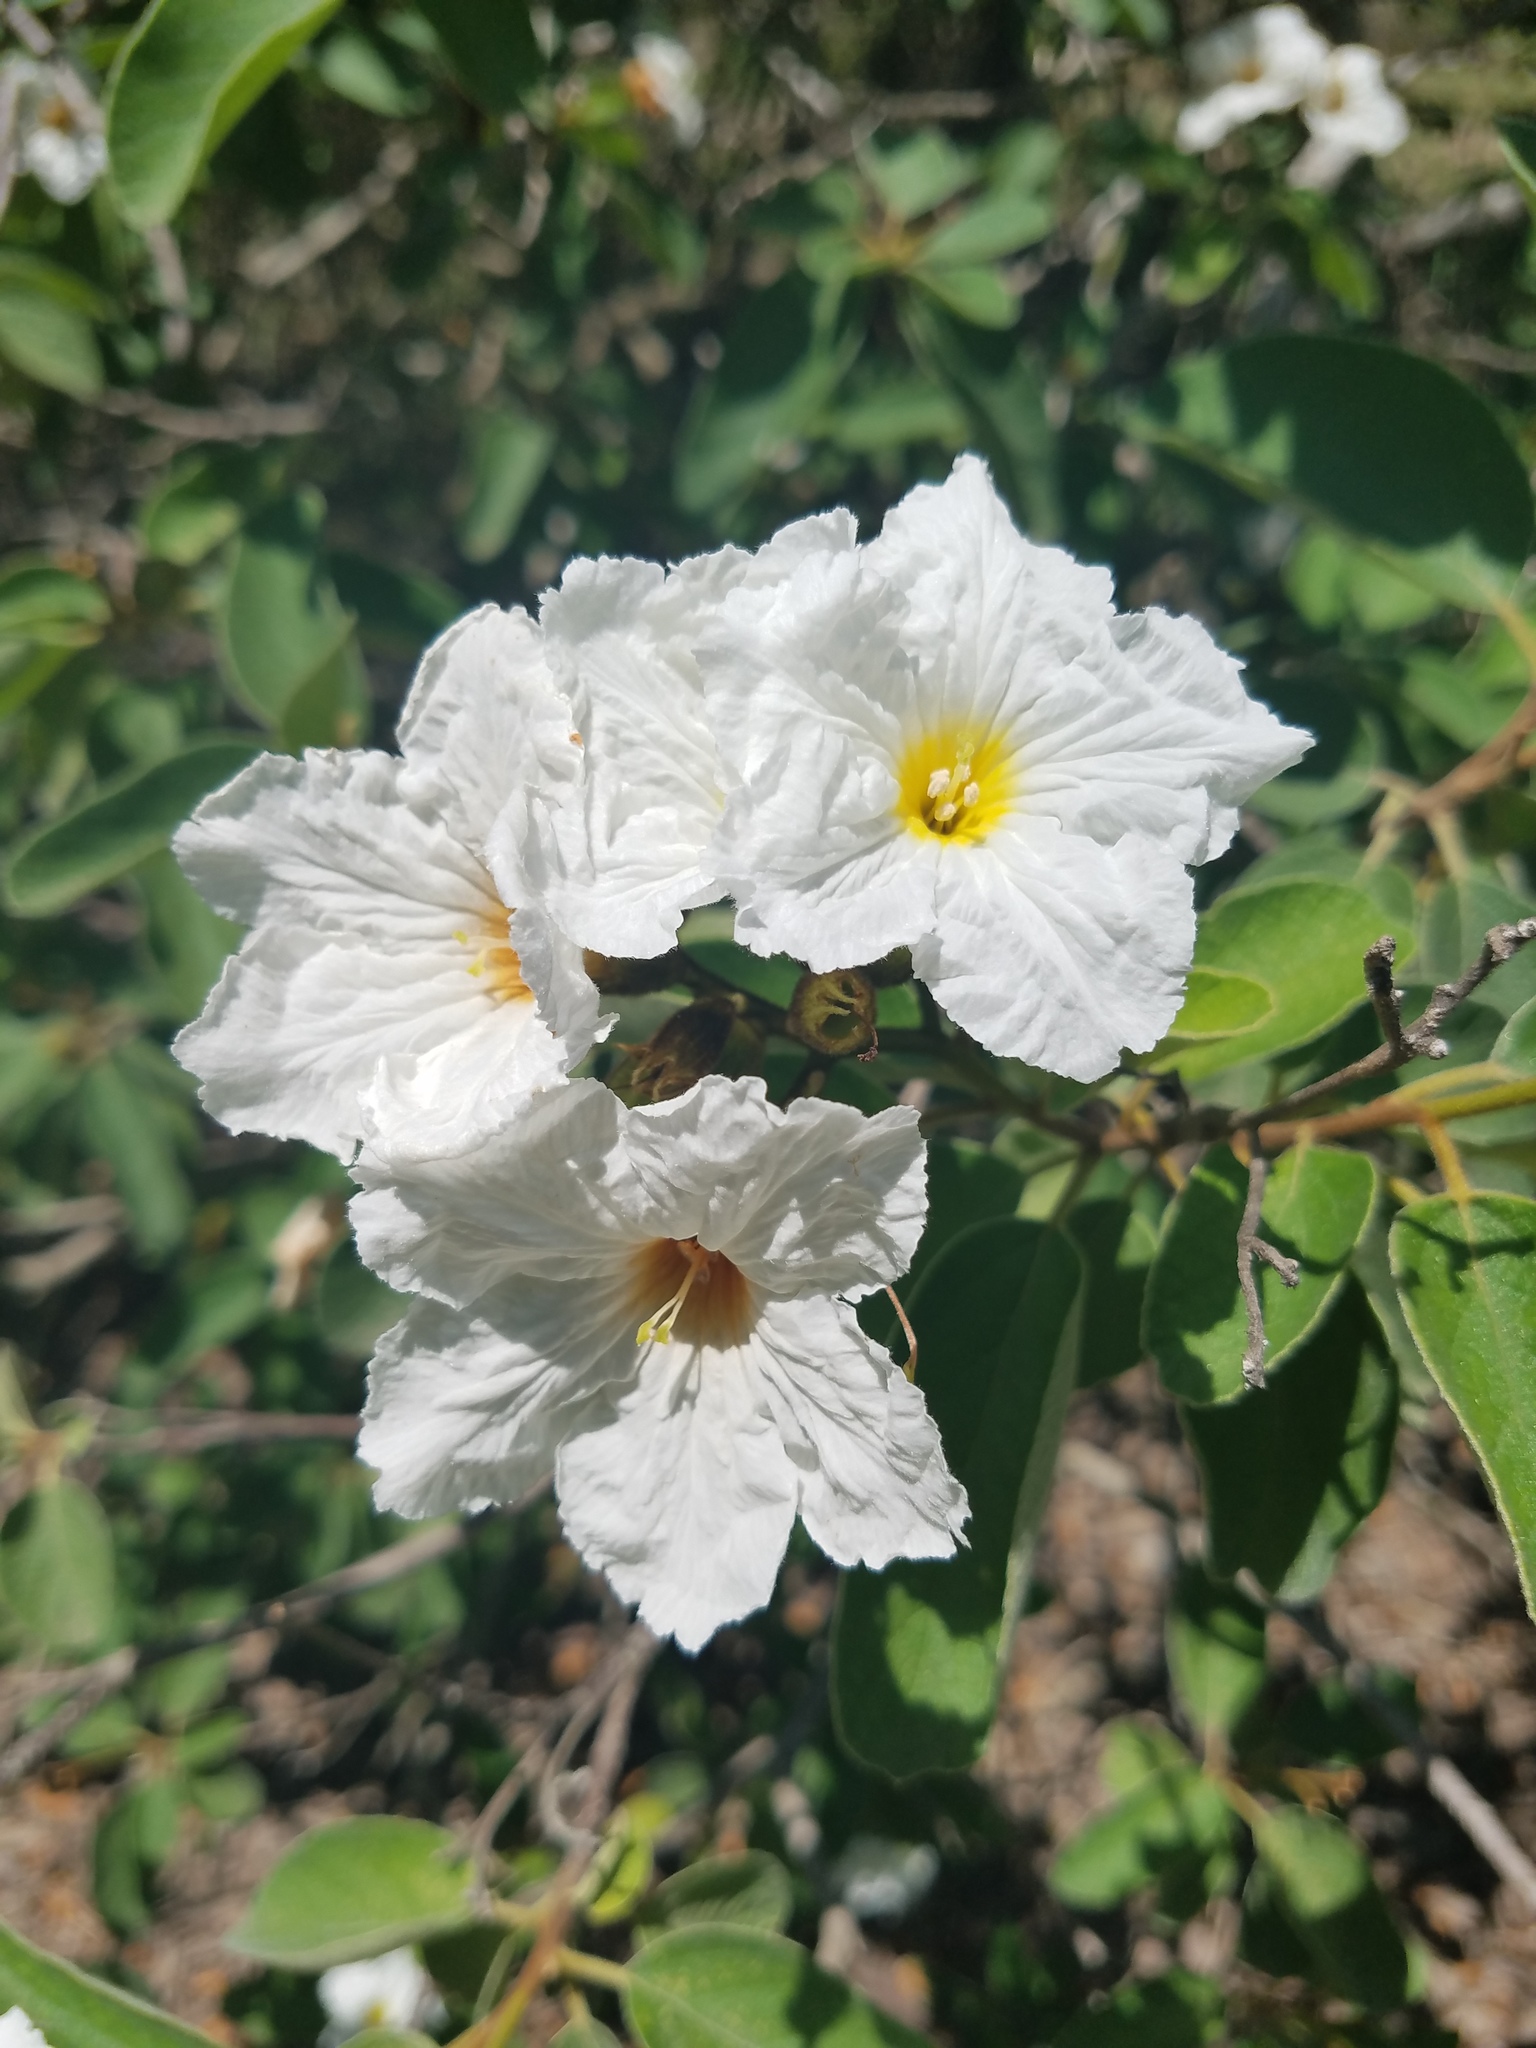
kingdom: Plantae
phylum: Tracheophyta
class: Magnoliopsida
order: Boraginales
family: Cordiaceae
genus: Cordia
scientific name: Cordia boissieri
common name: Mexican-olive
